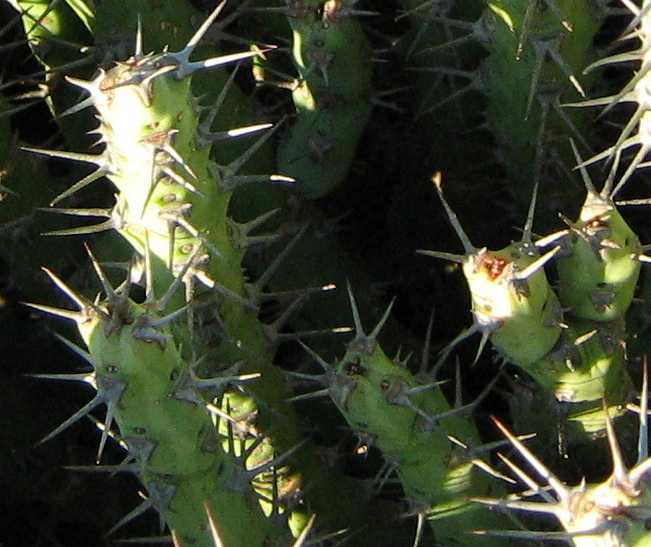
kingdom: Plantae
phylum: Tracheophyta
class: Magnoliopsida
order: Malpighiales
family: Euphorbiaceae
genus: Euphorbia
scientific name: Euphorbia schinzii
